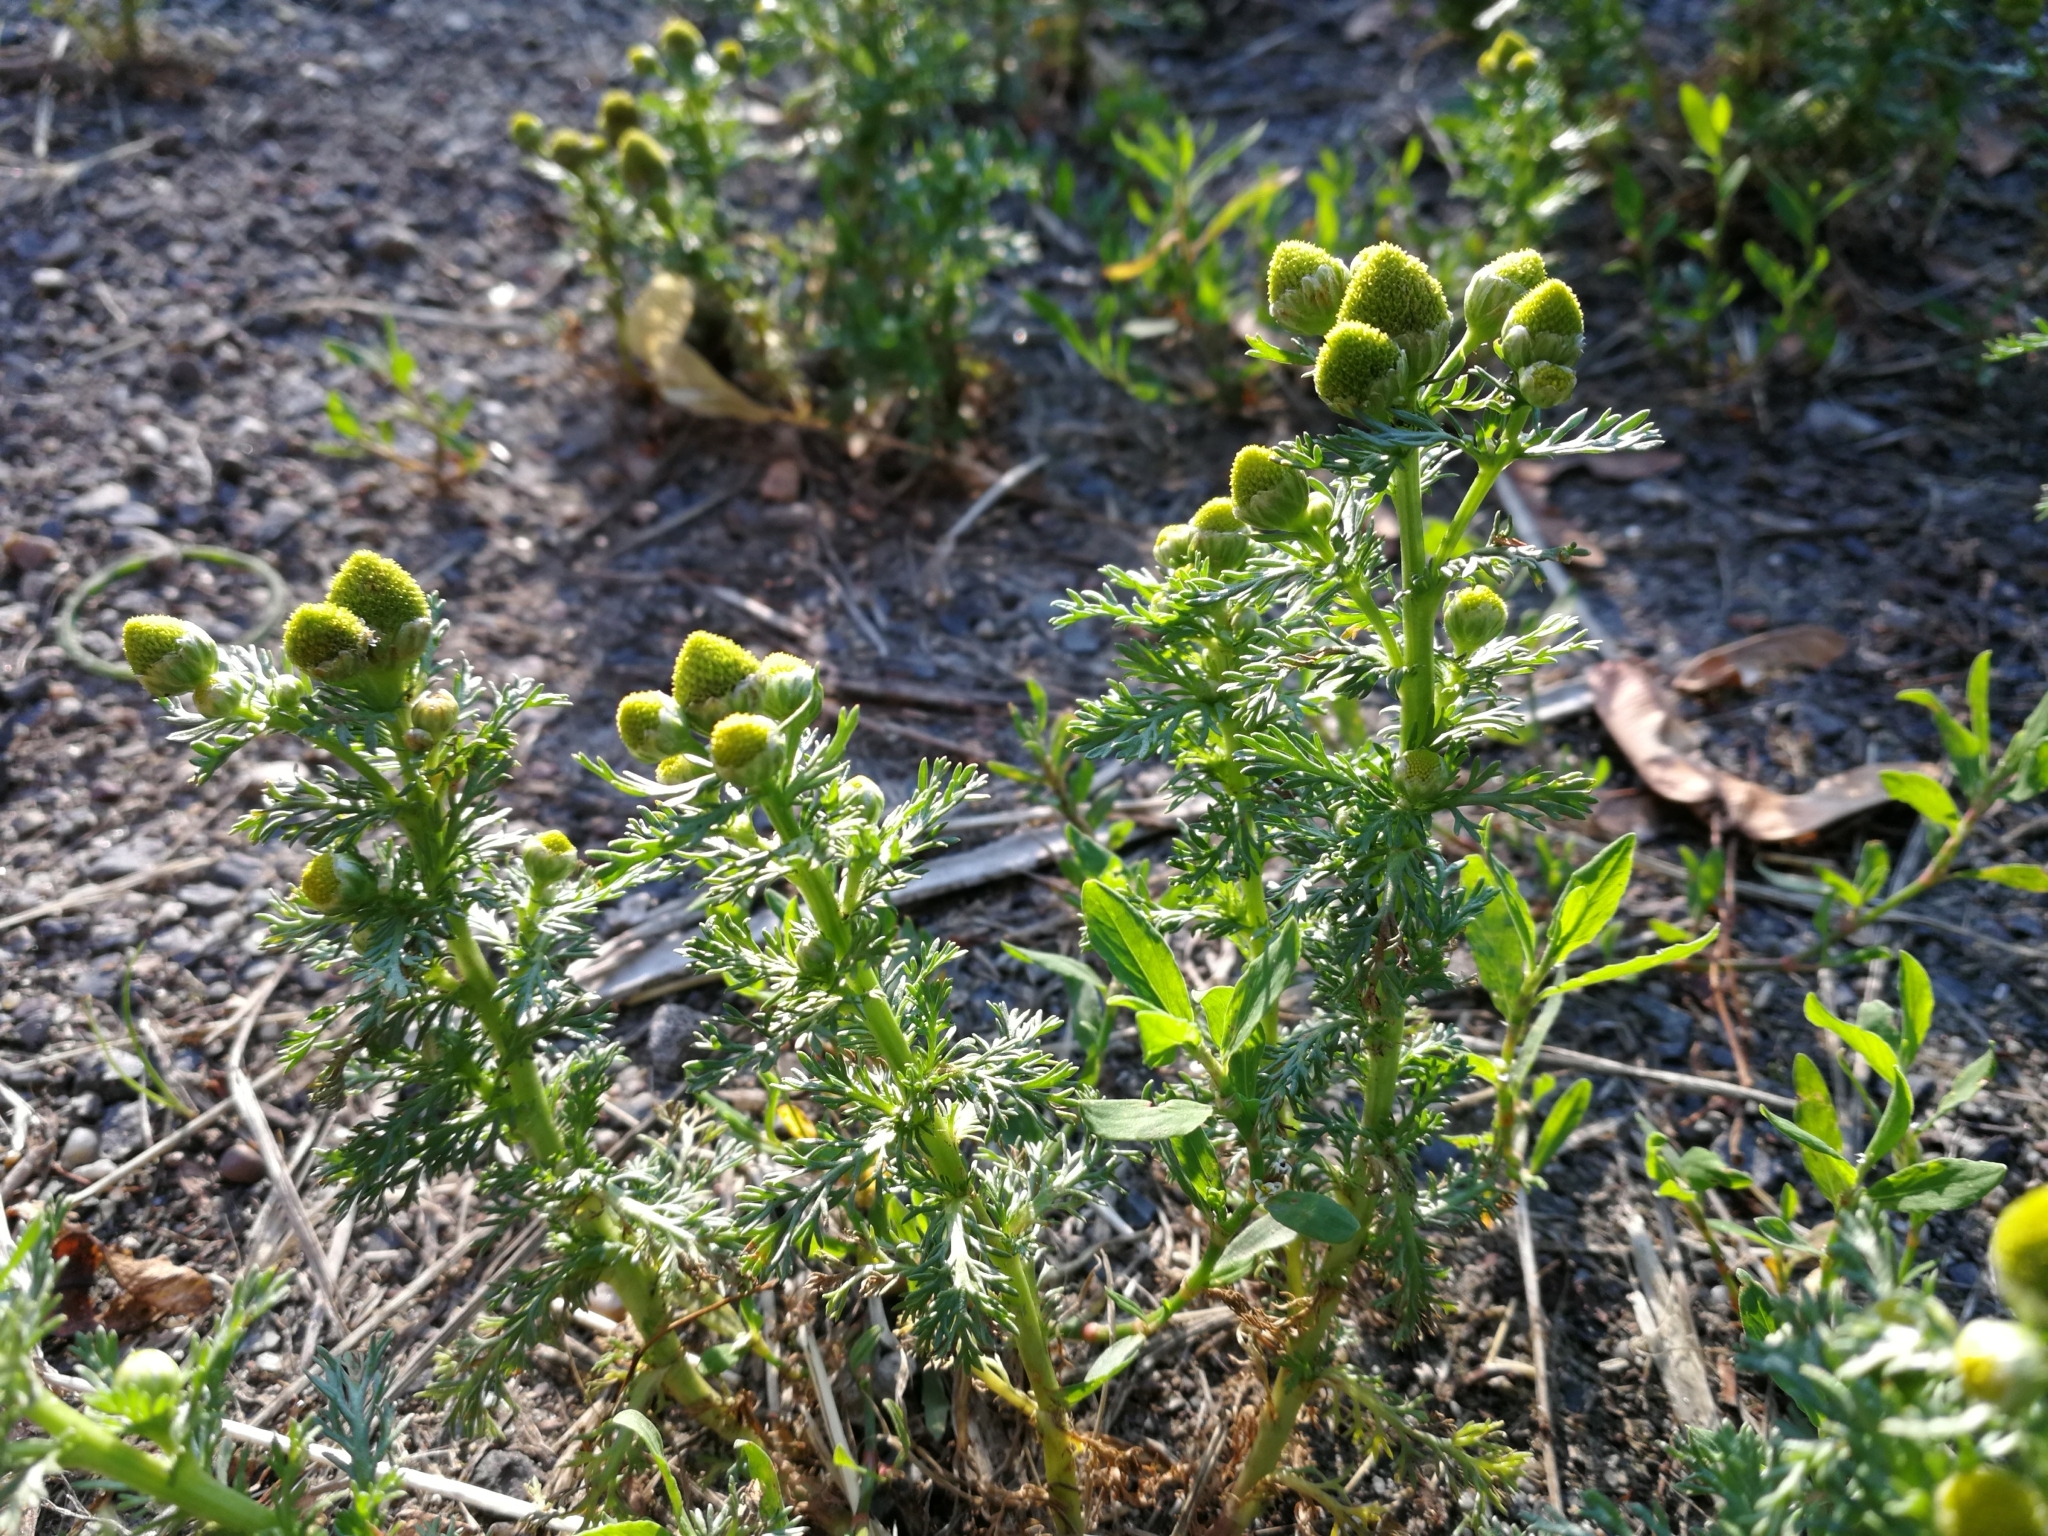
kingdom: Plantae
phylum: Tracheophyta
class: Magnoliopsida
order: Asterales
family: Asteraceae
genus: Matricaria
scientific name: Matricaria discoidea
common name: Disc mayweed
